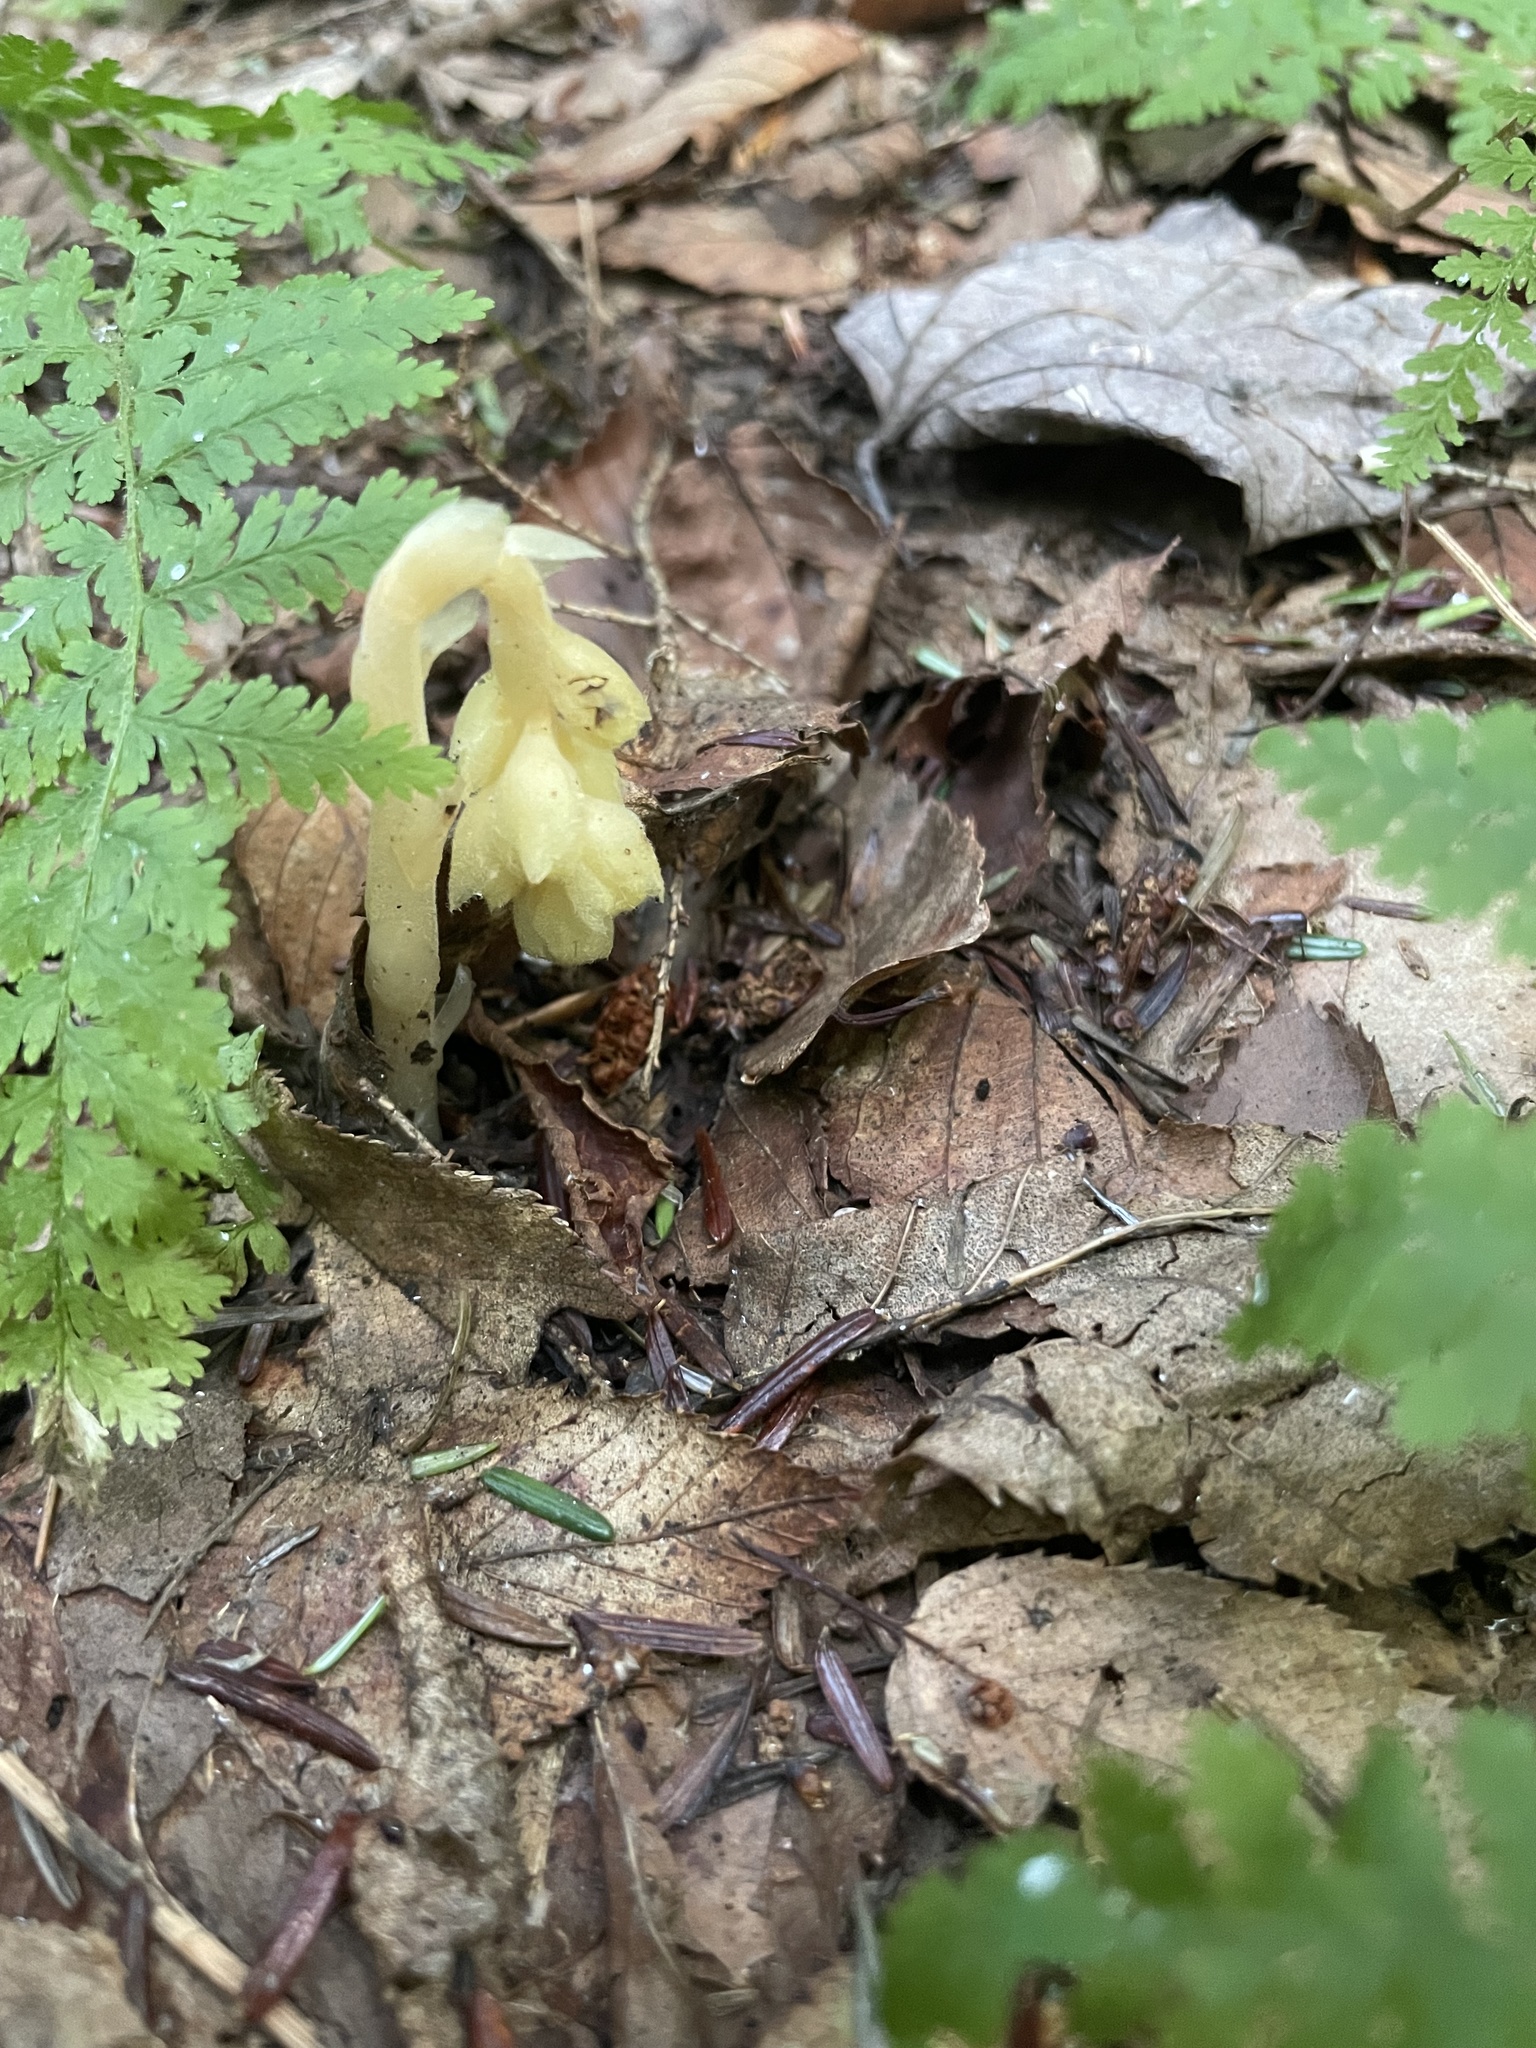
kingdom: Plantae
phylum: Tracheophyta
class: Magnoliopsida
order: Ericales
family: Ericaceae
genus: Hypopitys
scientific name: Hypopitys monotropa
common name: Yellow bird's-nest
